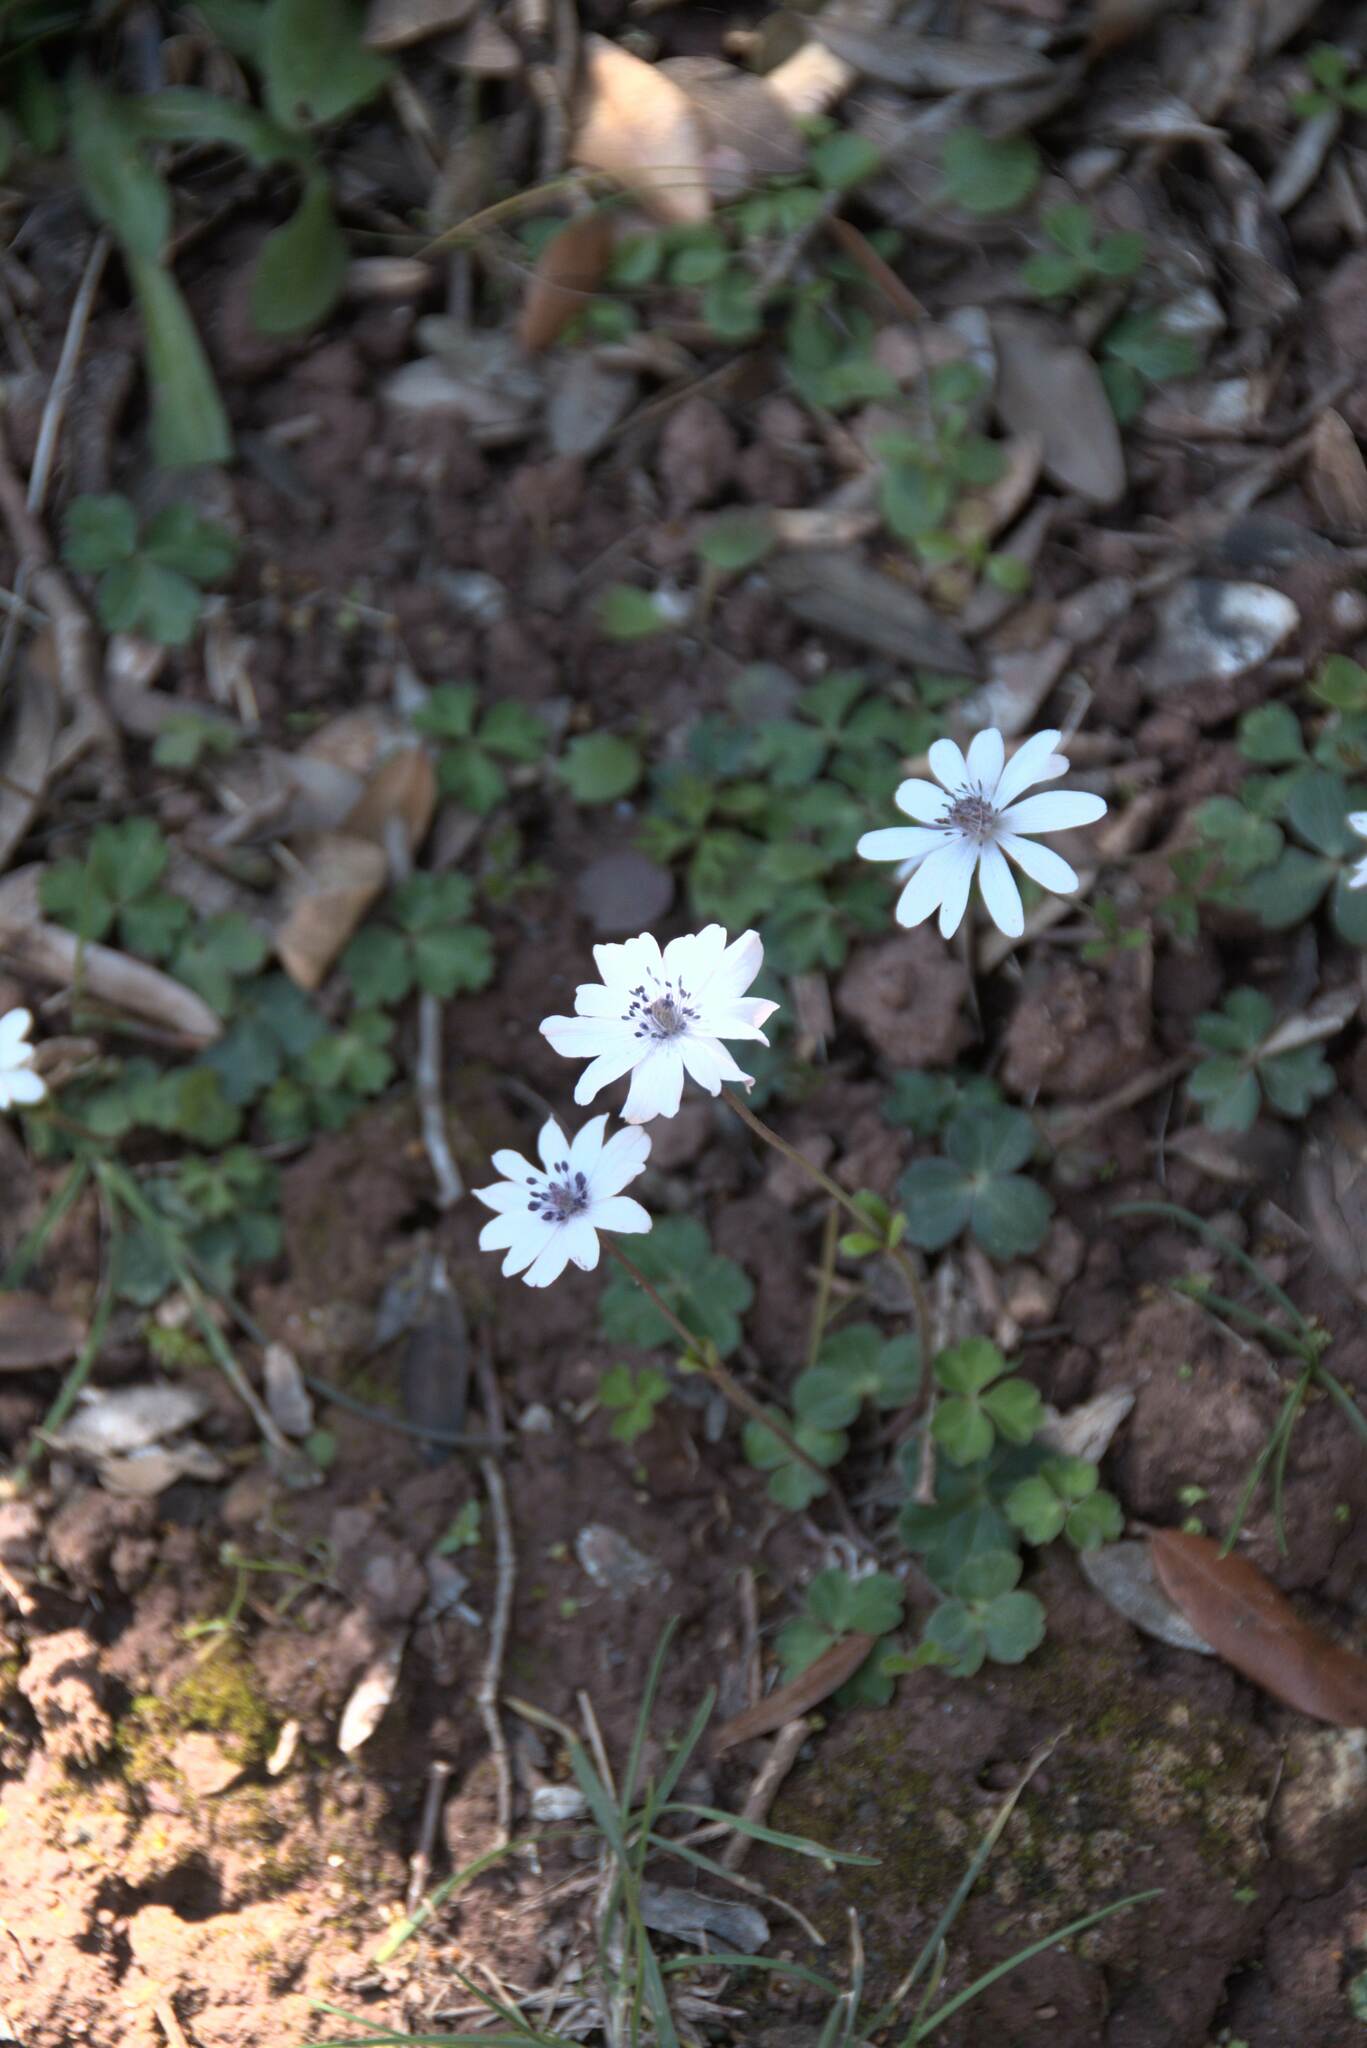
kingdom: Plantae
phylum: Tracheophyta
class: Magnoliopsida
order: Ranunculales
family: Ranunculaceae
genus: Anemone
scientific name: Anemone hortensis
